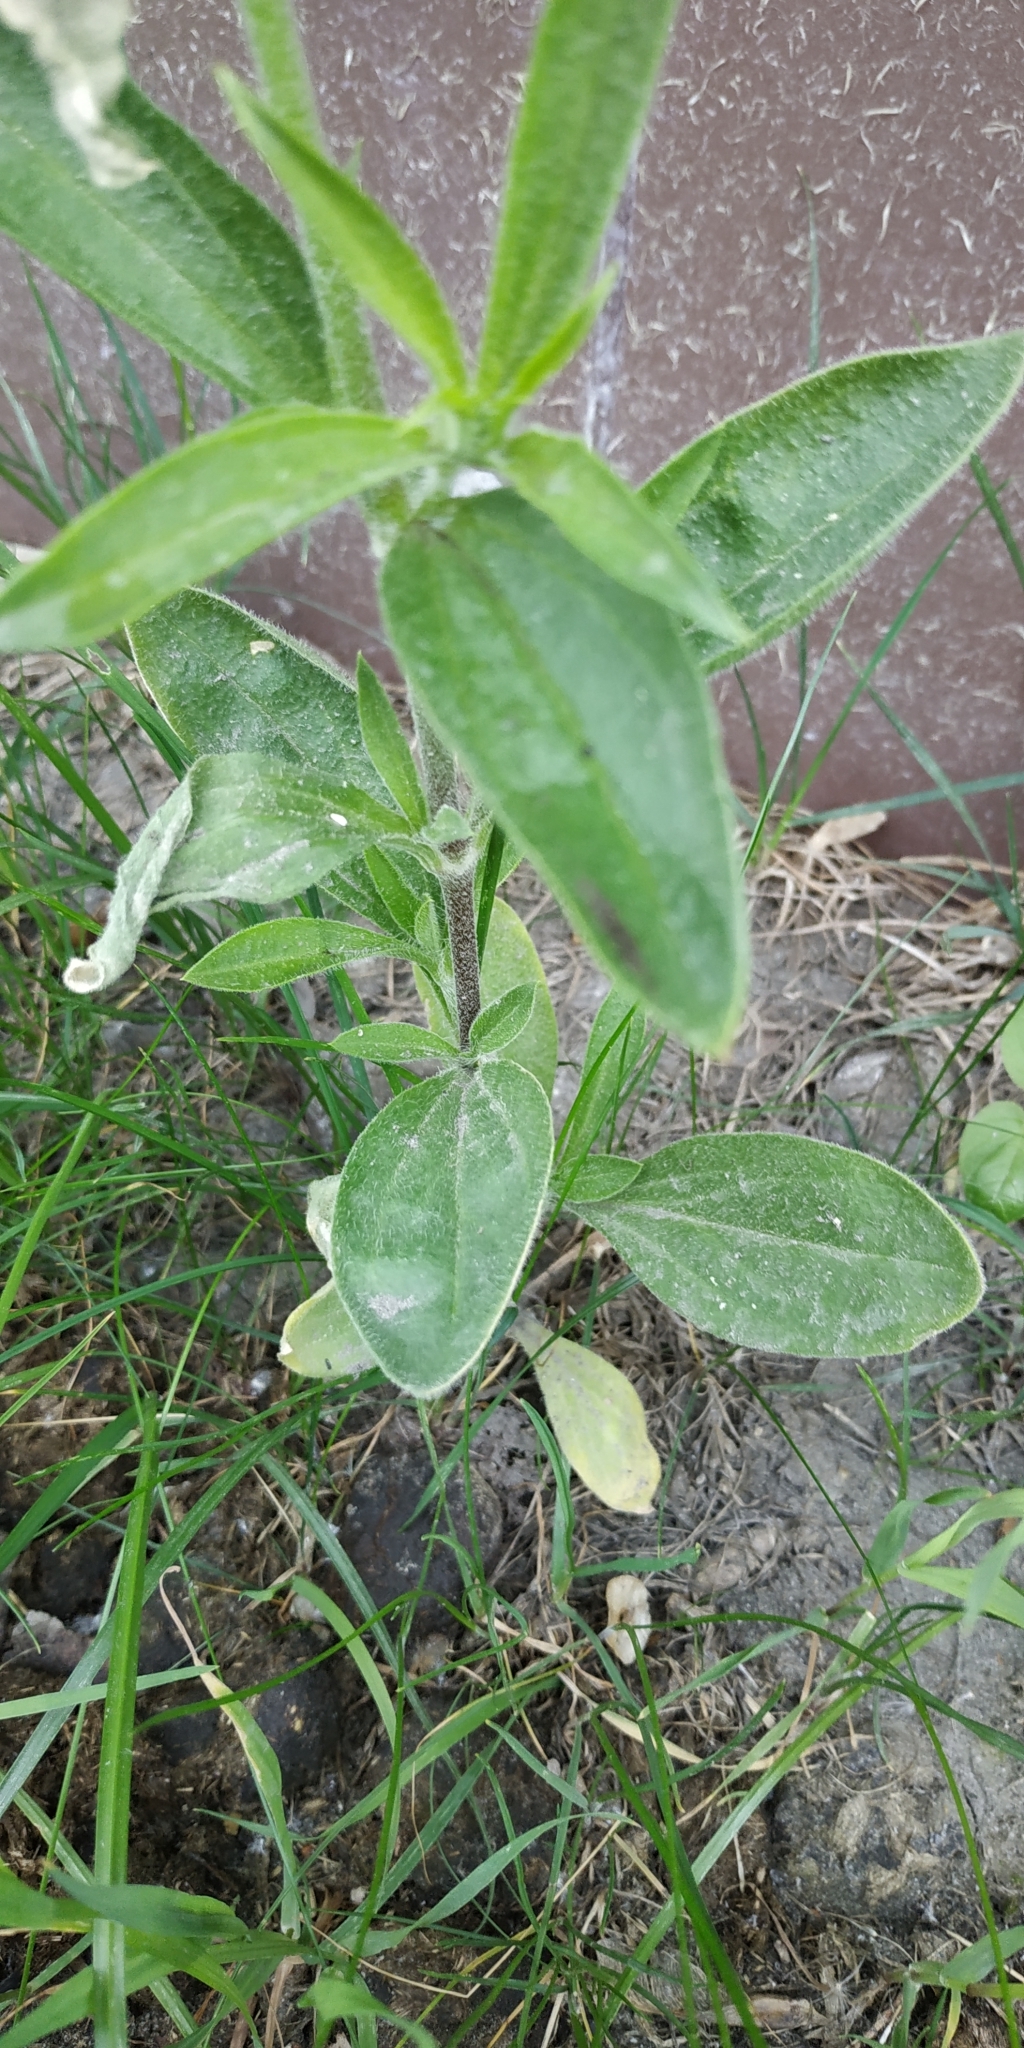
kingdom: Plantae
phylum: Tracheophyta
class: Magnoliopsida
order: Caryophyllales
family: Caryophyllaceae
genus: Silene
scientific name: Silene latifolia
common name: White campion
